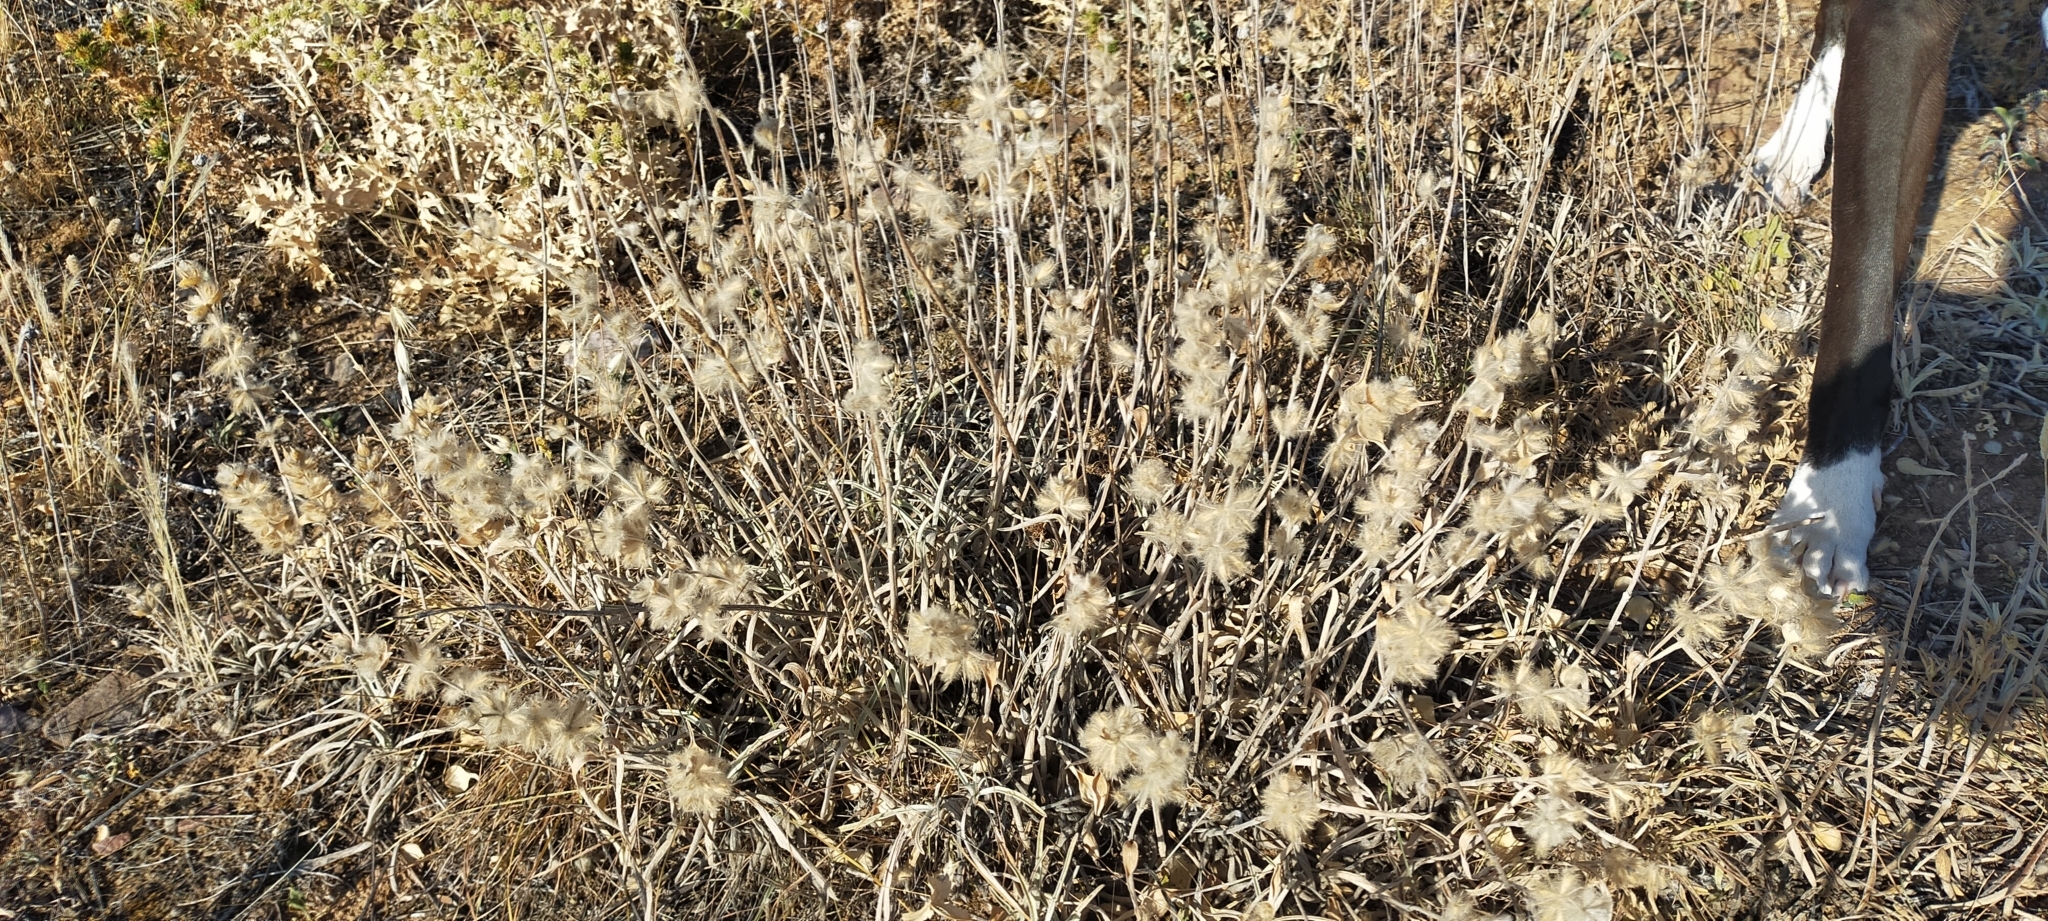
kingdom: Plantae
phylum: Tracheophyta
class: Magnoliopsida
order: Lamiales
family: Lamiaceae
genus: Phlomis
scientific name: Phlomis lychnitis
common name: Lampwickplant
